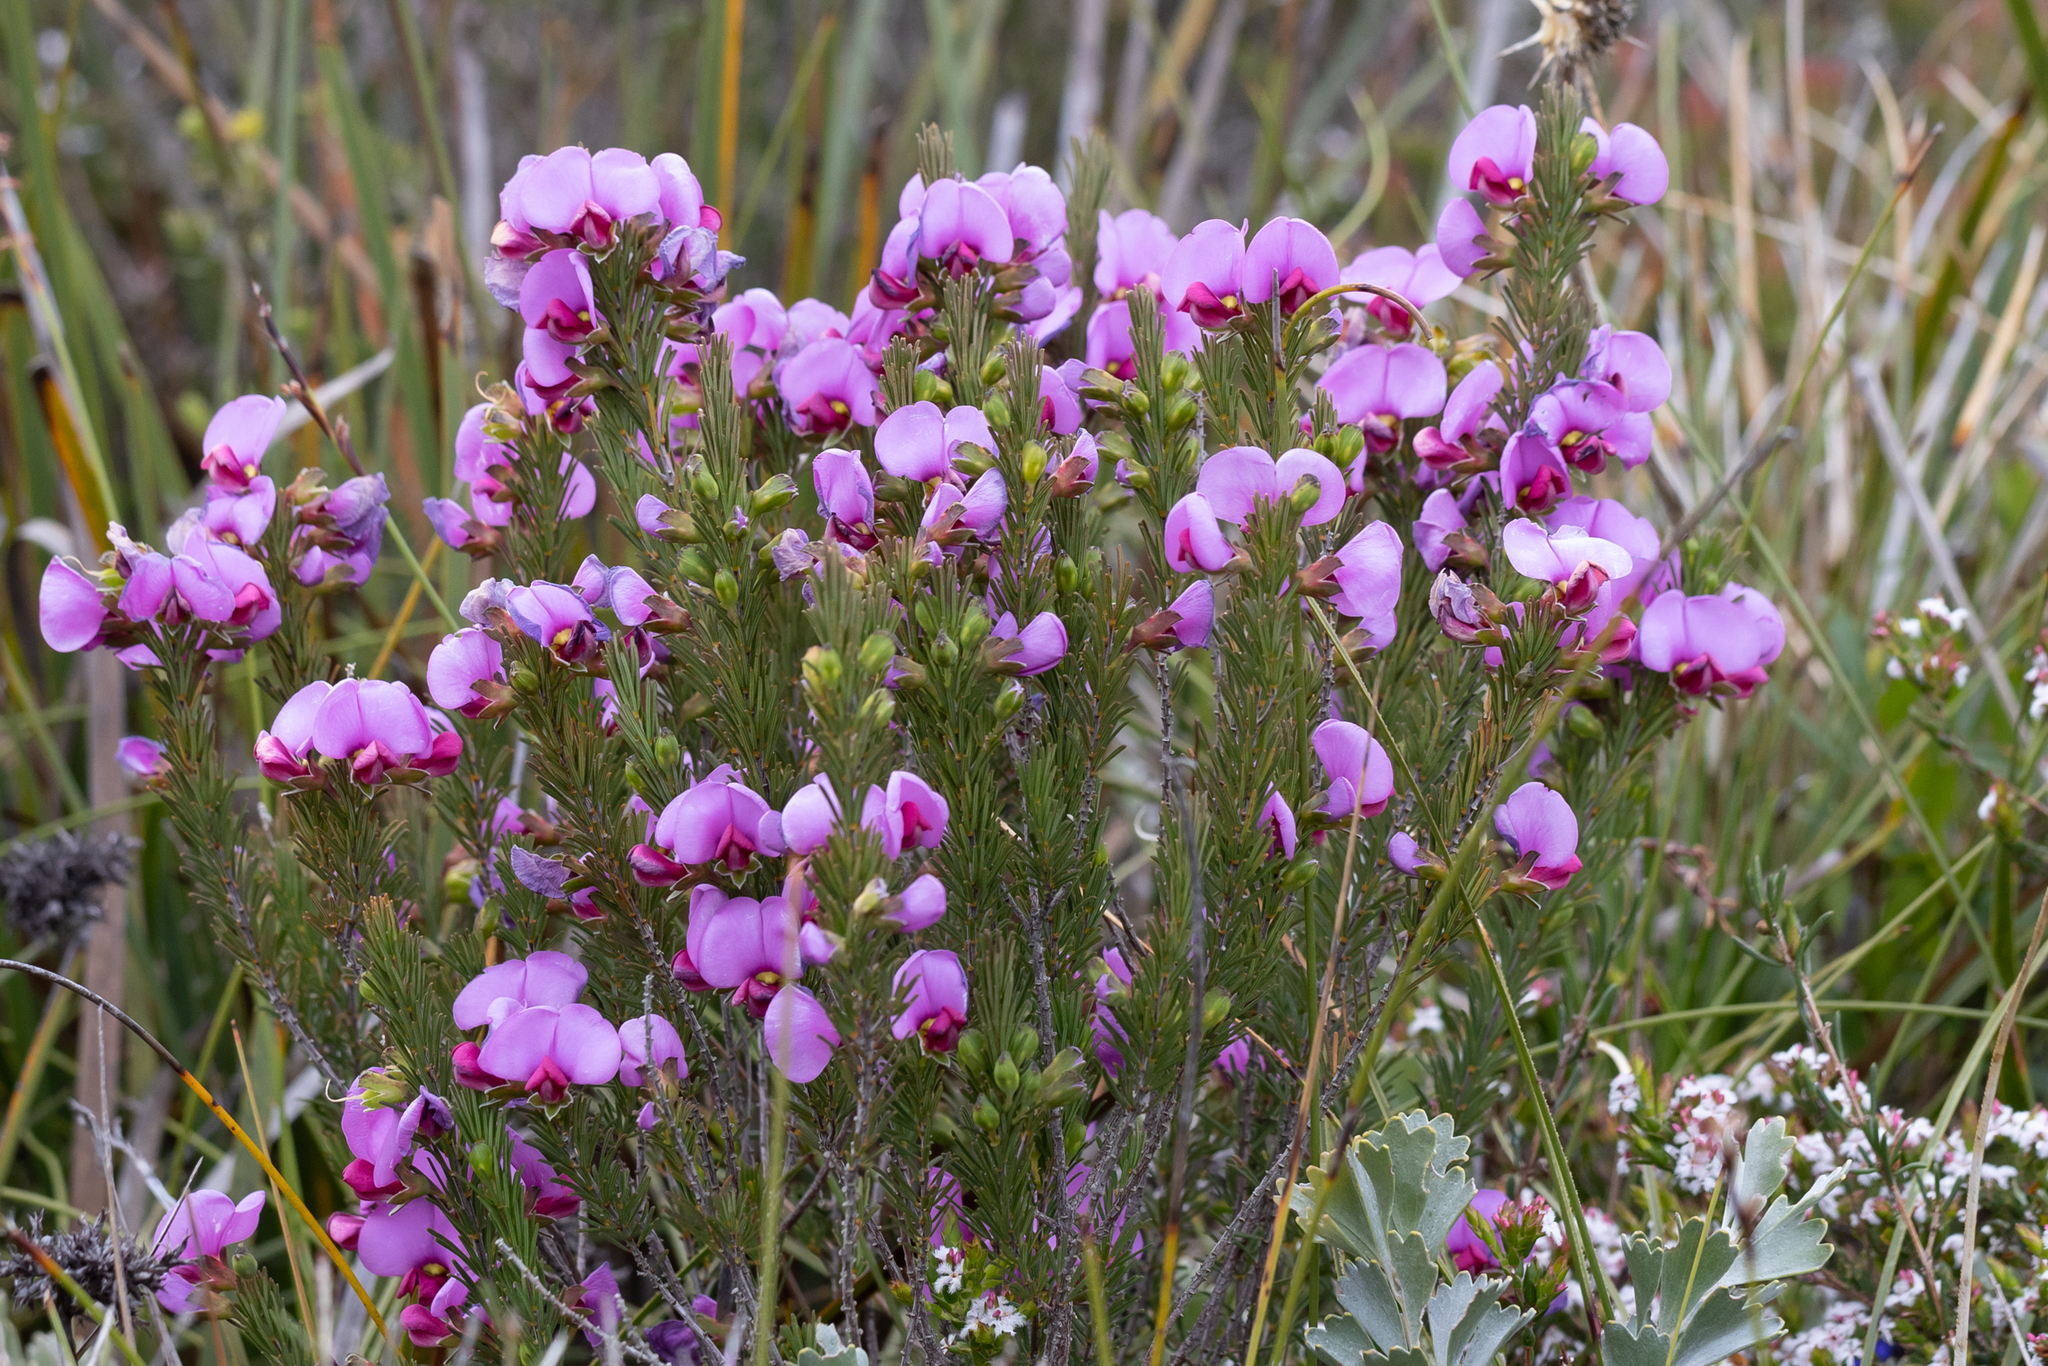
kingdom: Plantae
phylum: Tracheophyta
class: Magnoliopsida
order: Fabales
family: Fabaceae
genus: Gompholobium
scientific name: Gompholobium scabrum
